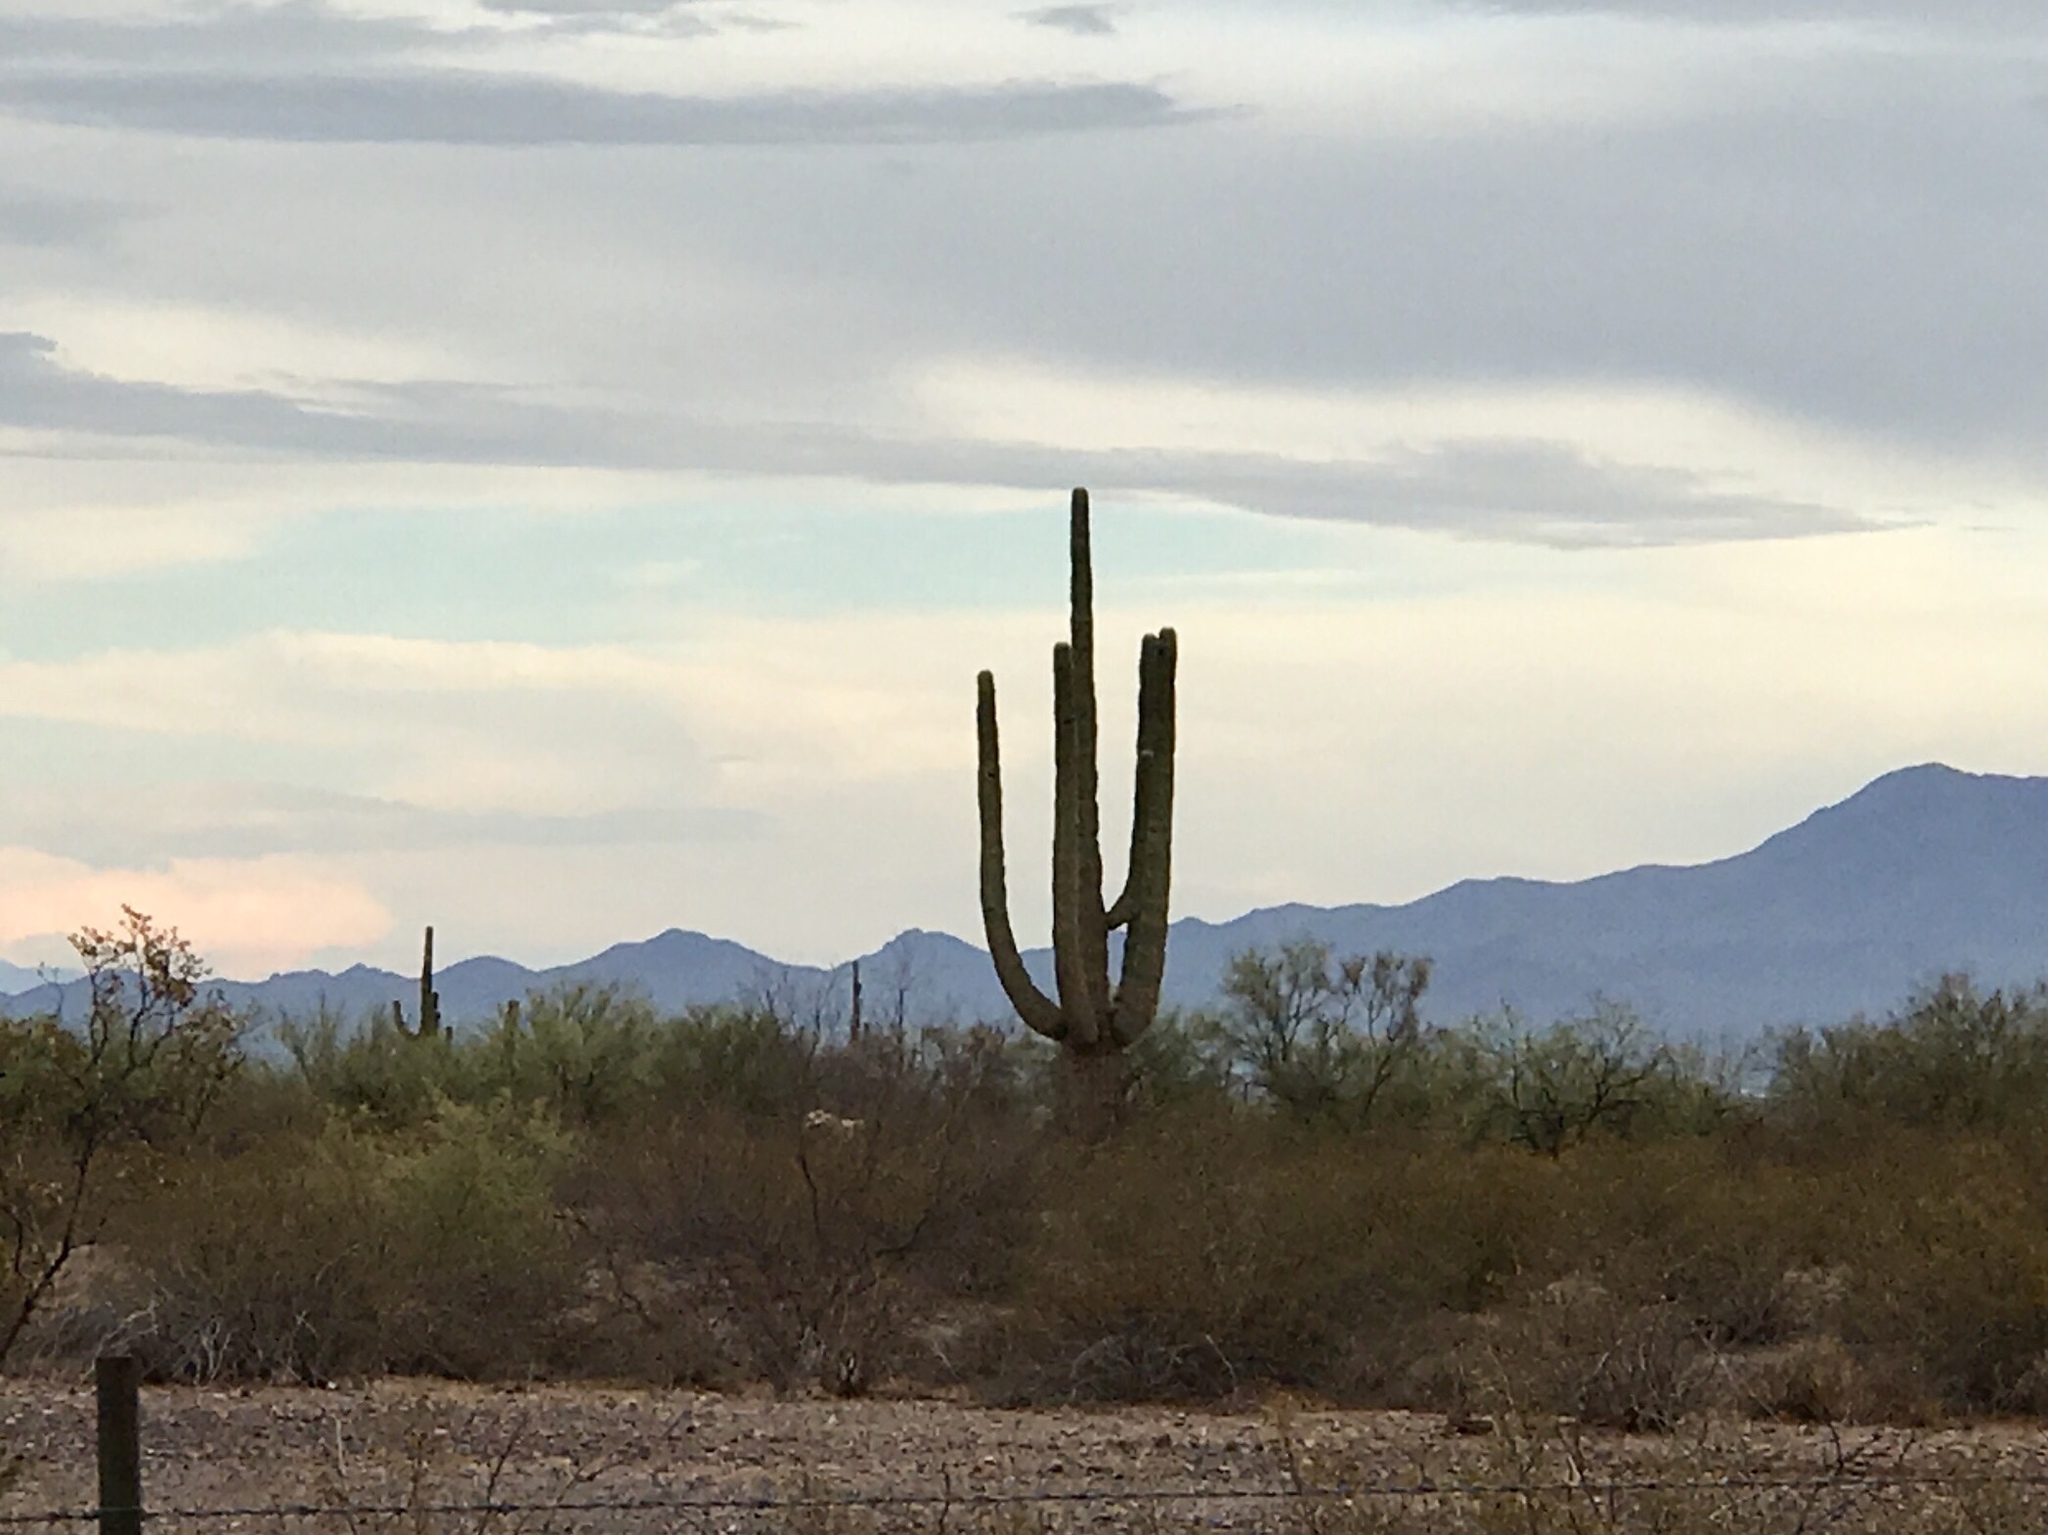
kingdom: Plantae
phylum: Tracheophyta
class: Magnoliopsida
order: Caryophyllales
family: Cactaceae
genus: Carnegiea
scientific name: Carnegiea gigantea
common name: Saguaro
